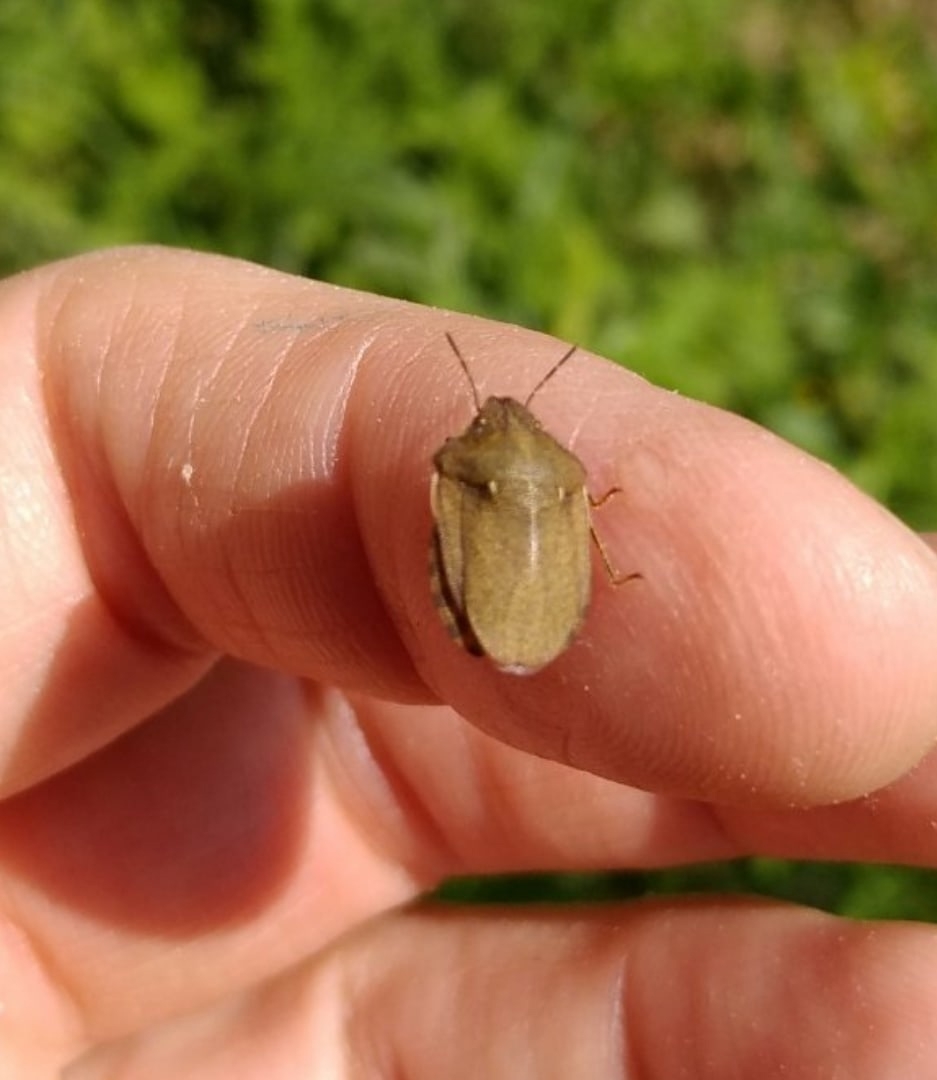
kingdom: Animalia
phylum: Arthropoda
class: Insecta
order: Hemiptera
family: Scutelleridae
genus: Eurygaster
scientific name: Eurygaster testudinaria
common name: Tortoise bug
